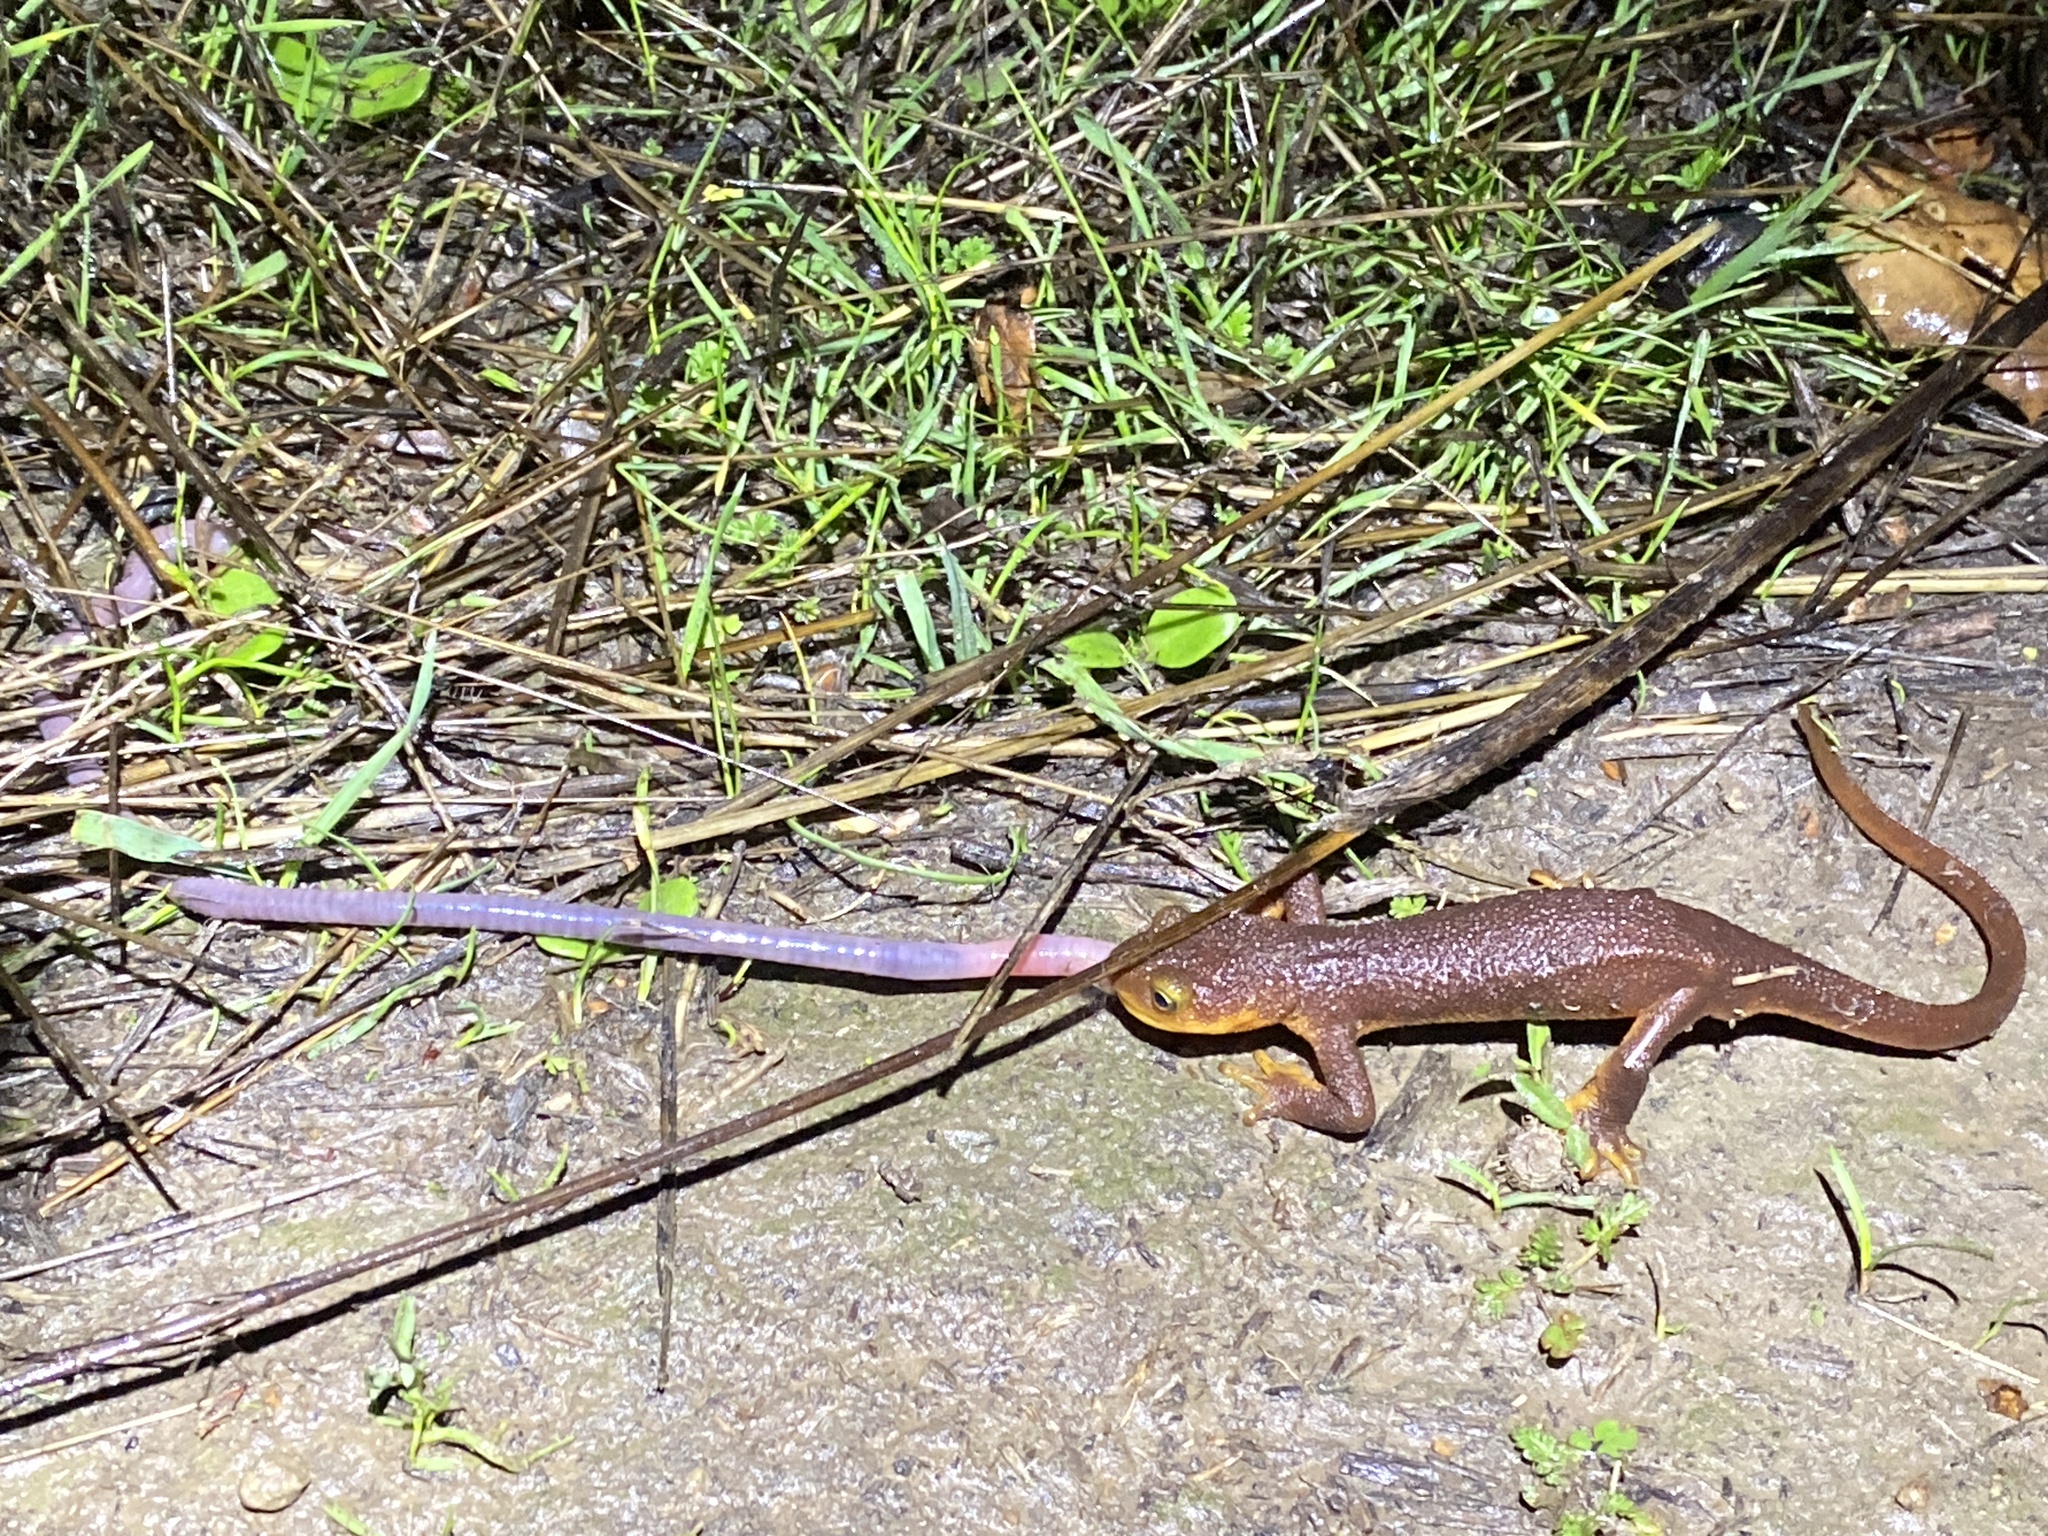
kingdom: Animalia
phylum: Chordata
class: Amphibia
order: Caudata
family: Salamandridae
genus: Taricha
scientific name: Taricha torosa
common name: California newt
